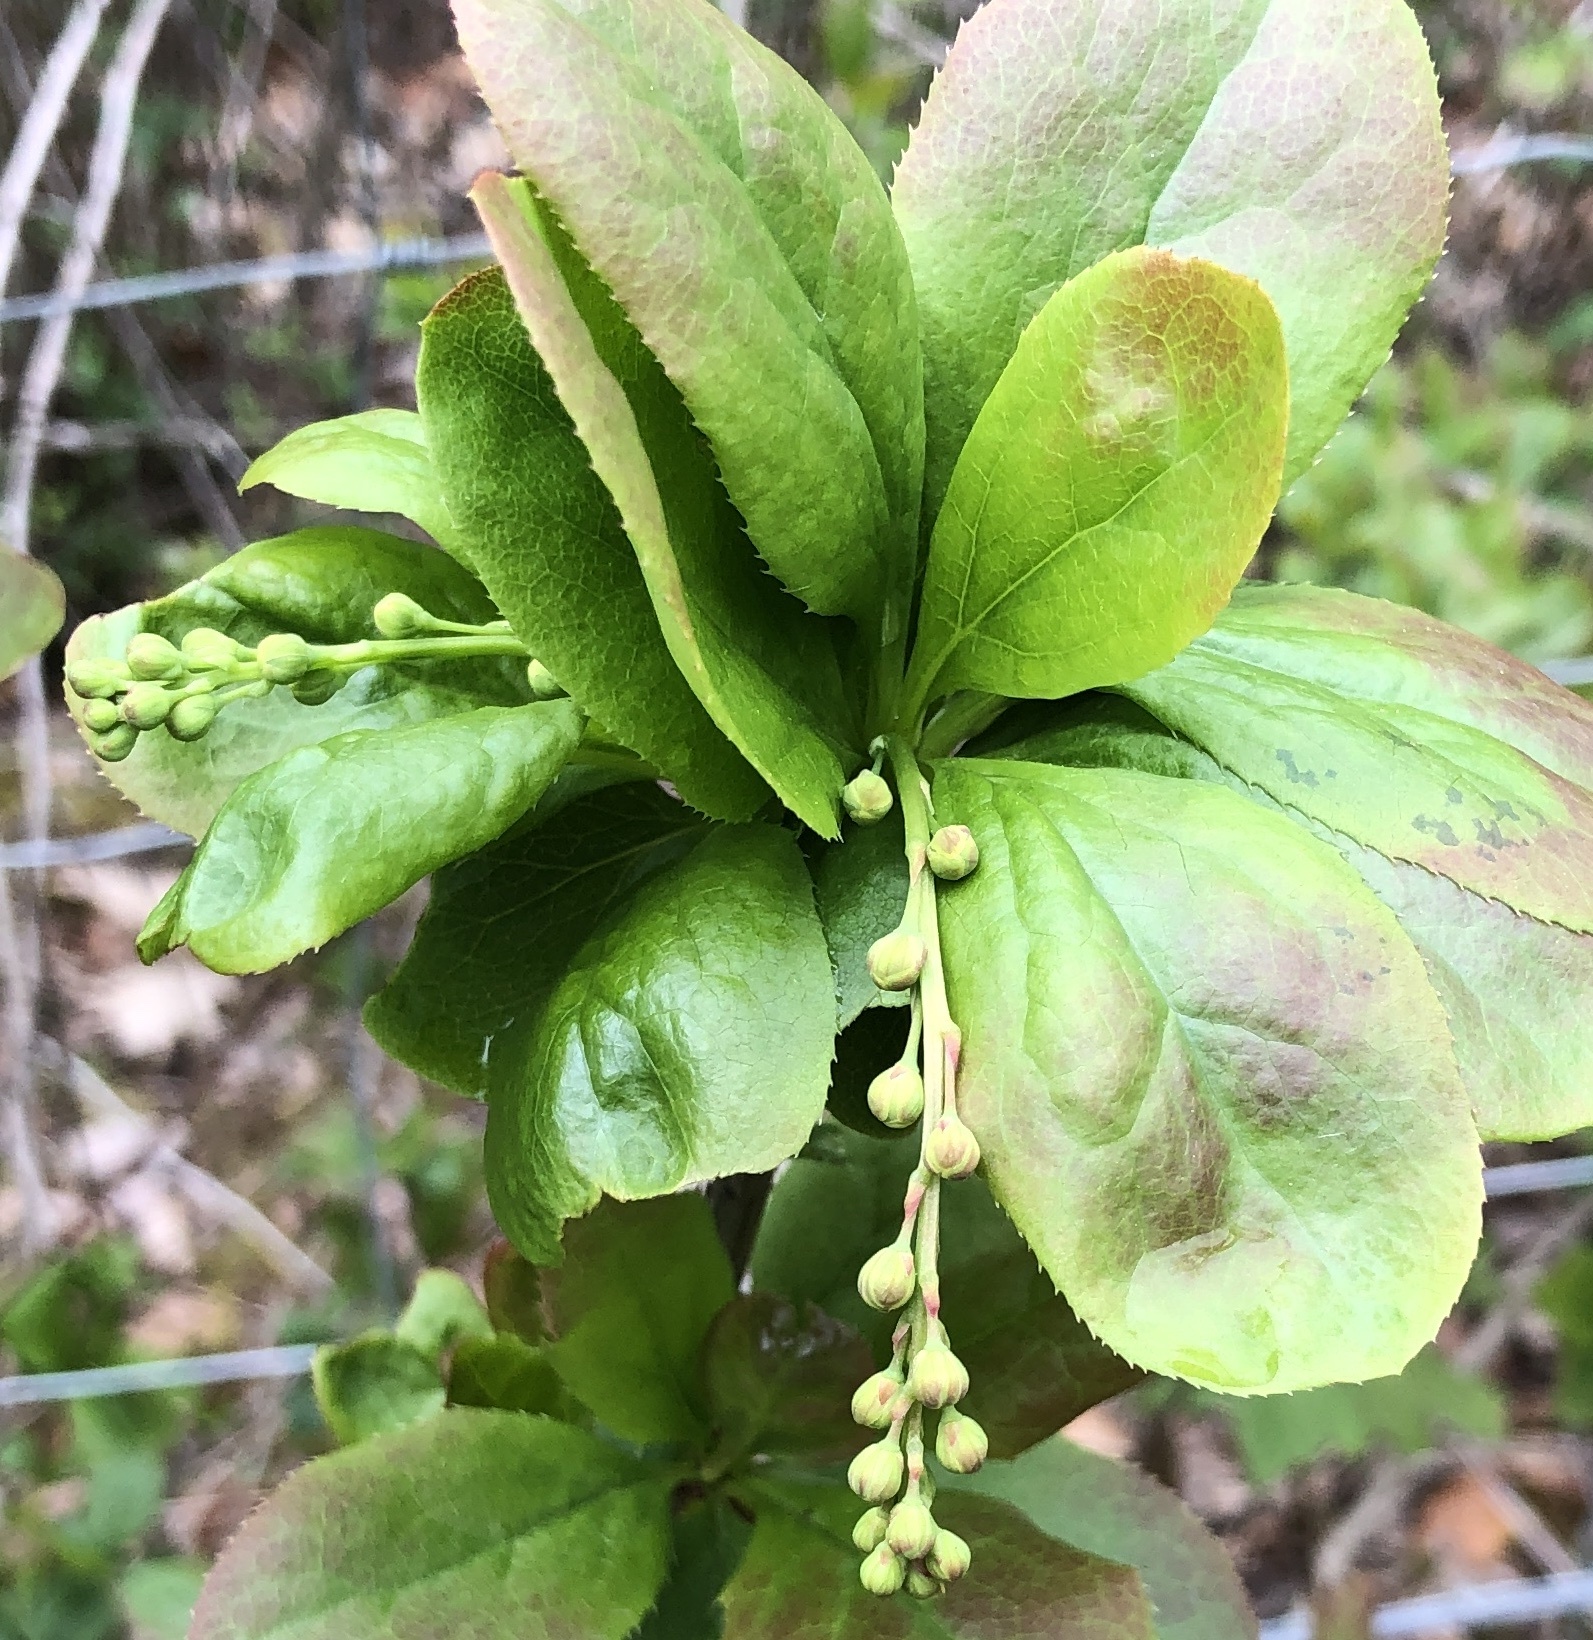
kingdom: Plantae
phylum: Tracheophyta
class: Magnoliopsida
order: Ranunculales
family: Berberidaceae
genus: Berberis
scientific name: Berberis vulgaris
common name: Barberry
